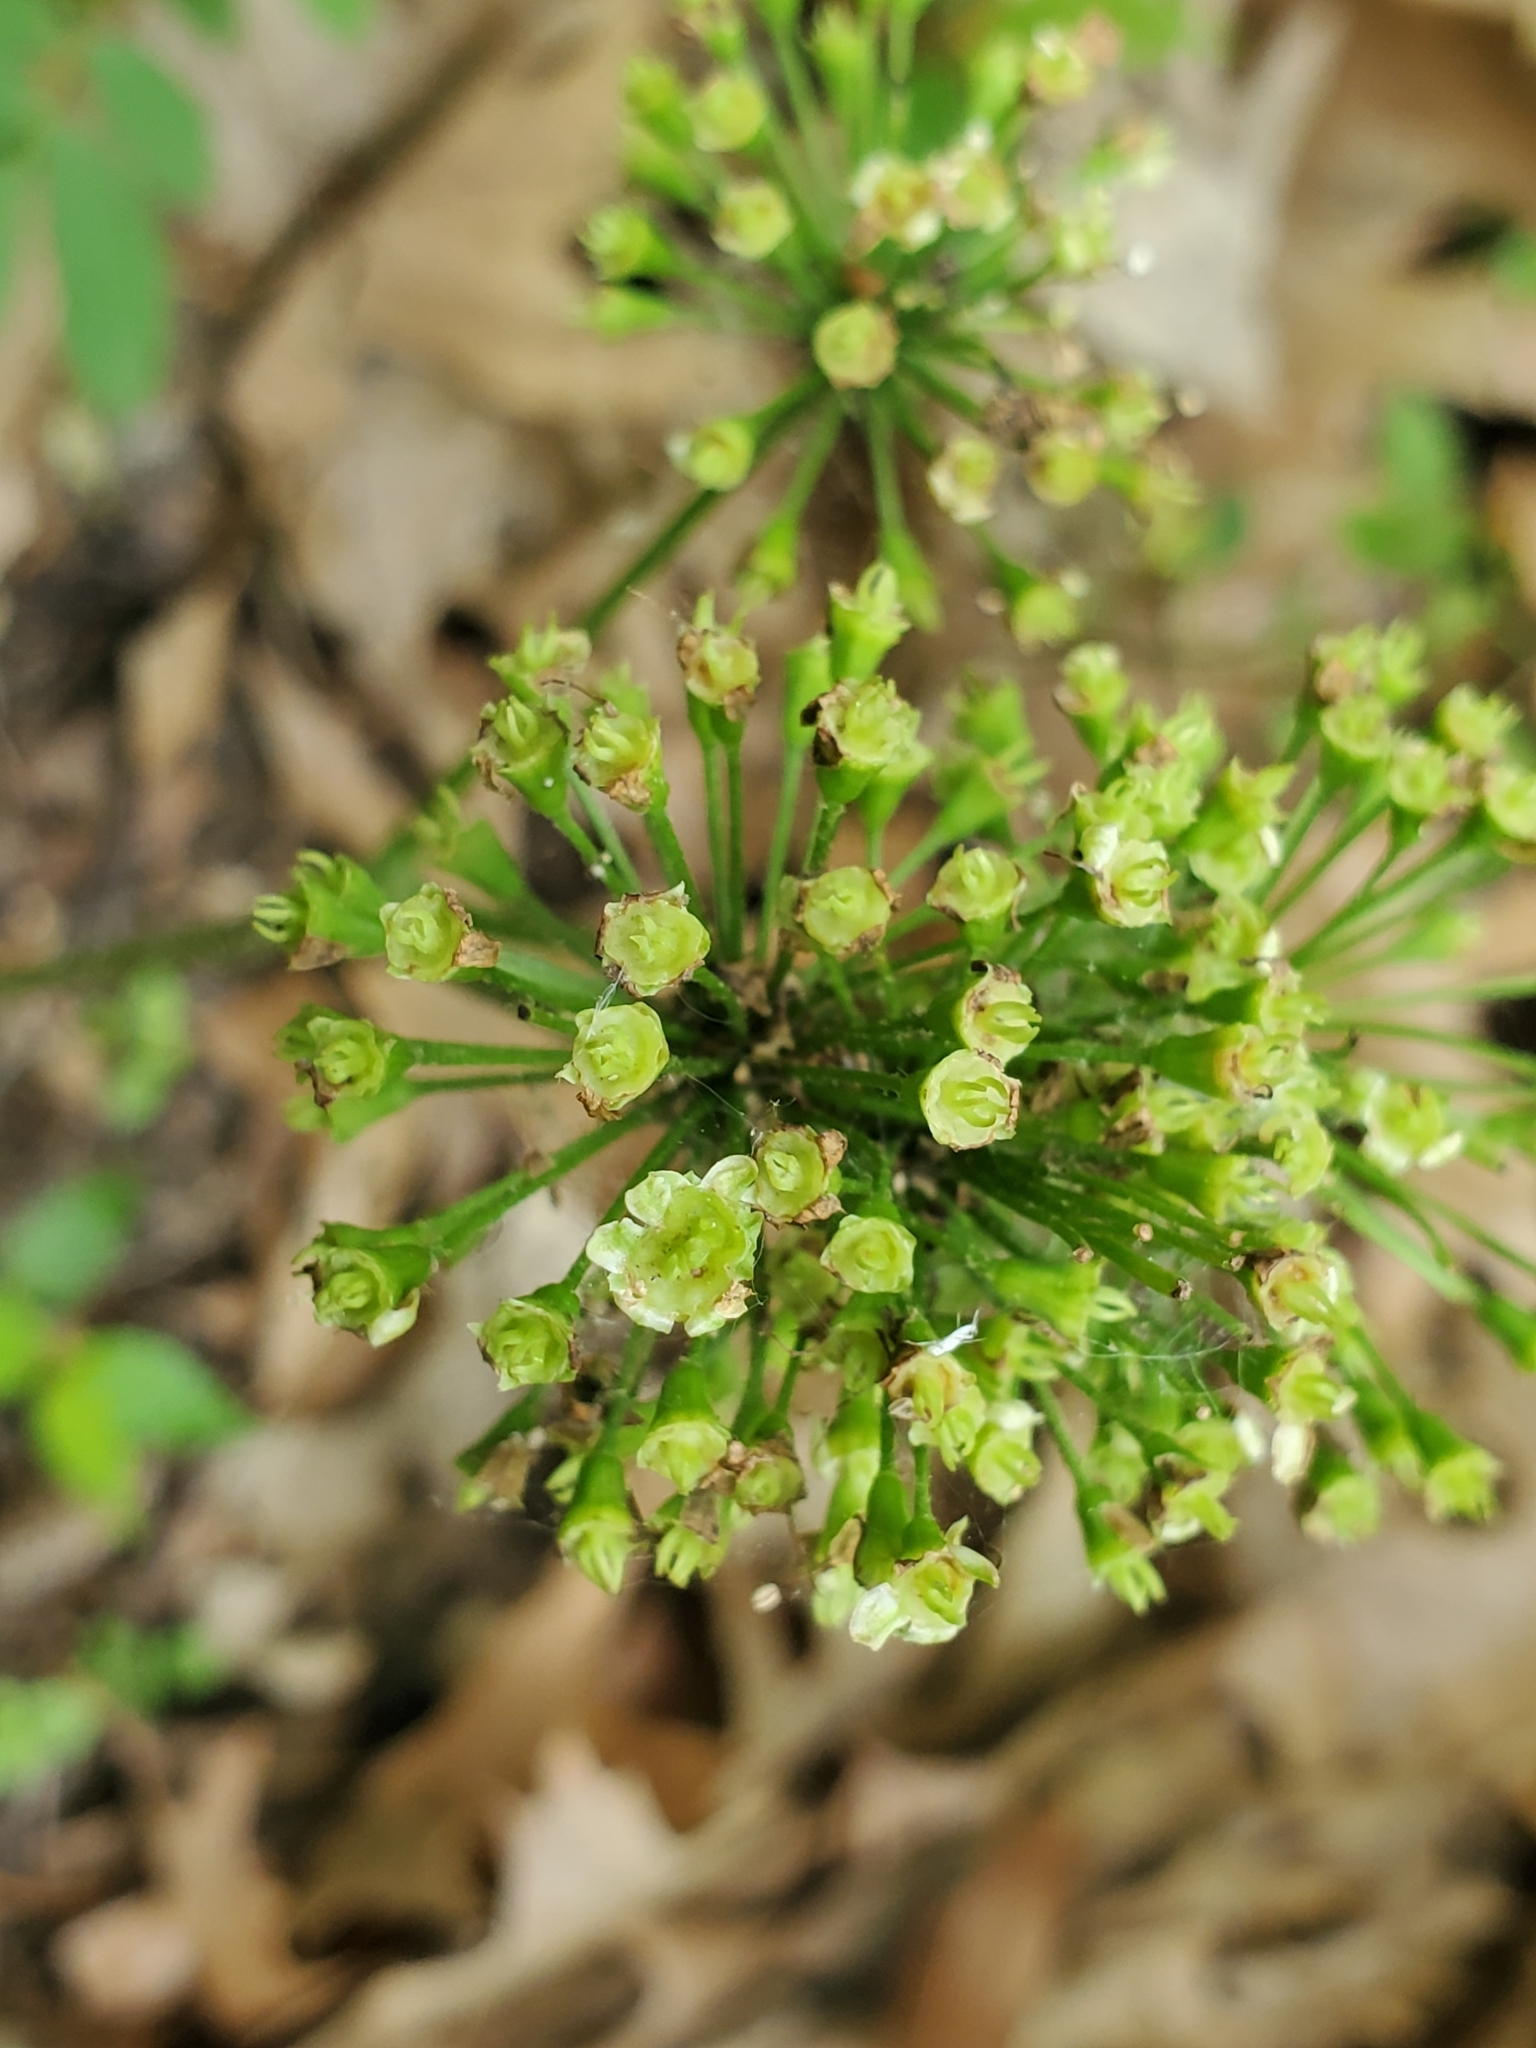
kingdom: Plantae
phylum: Tracheophyta
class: Magnoliopsida
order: Apiales
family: Araliaceae
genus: Aralia
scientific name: Aralia nudicaulis
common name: Wild sarsaparilla
